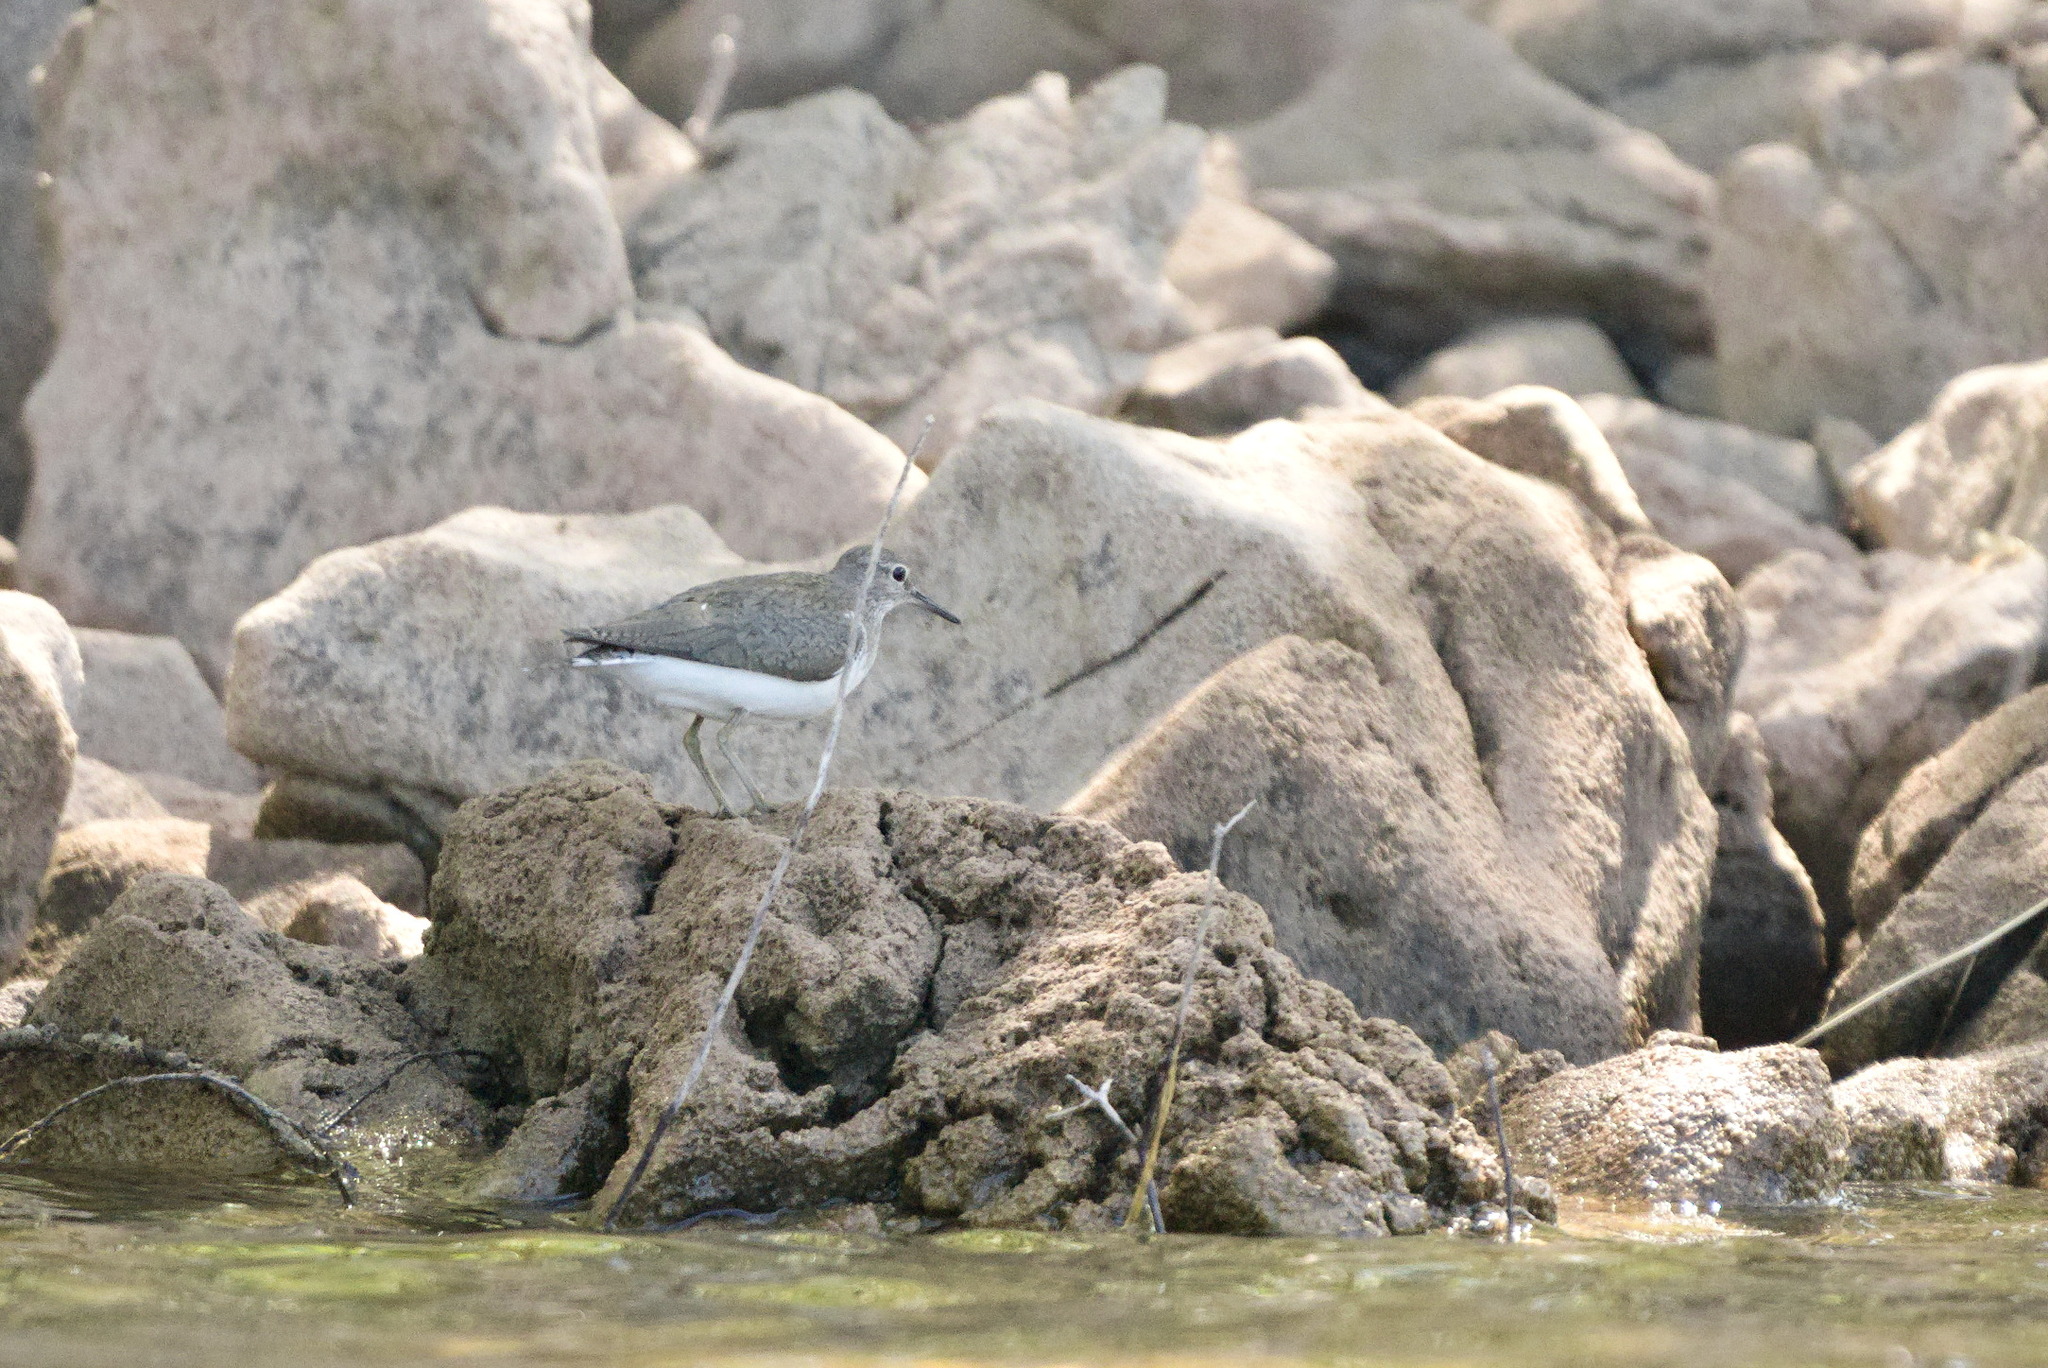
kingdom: Animalia
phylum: Chordata
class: Aves
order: Charadriiformes
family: Scolopacidae
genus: Actitis
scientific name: Actitis hypoleucos
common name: Common sandpiper
